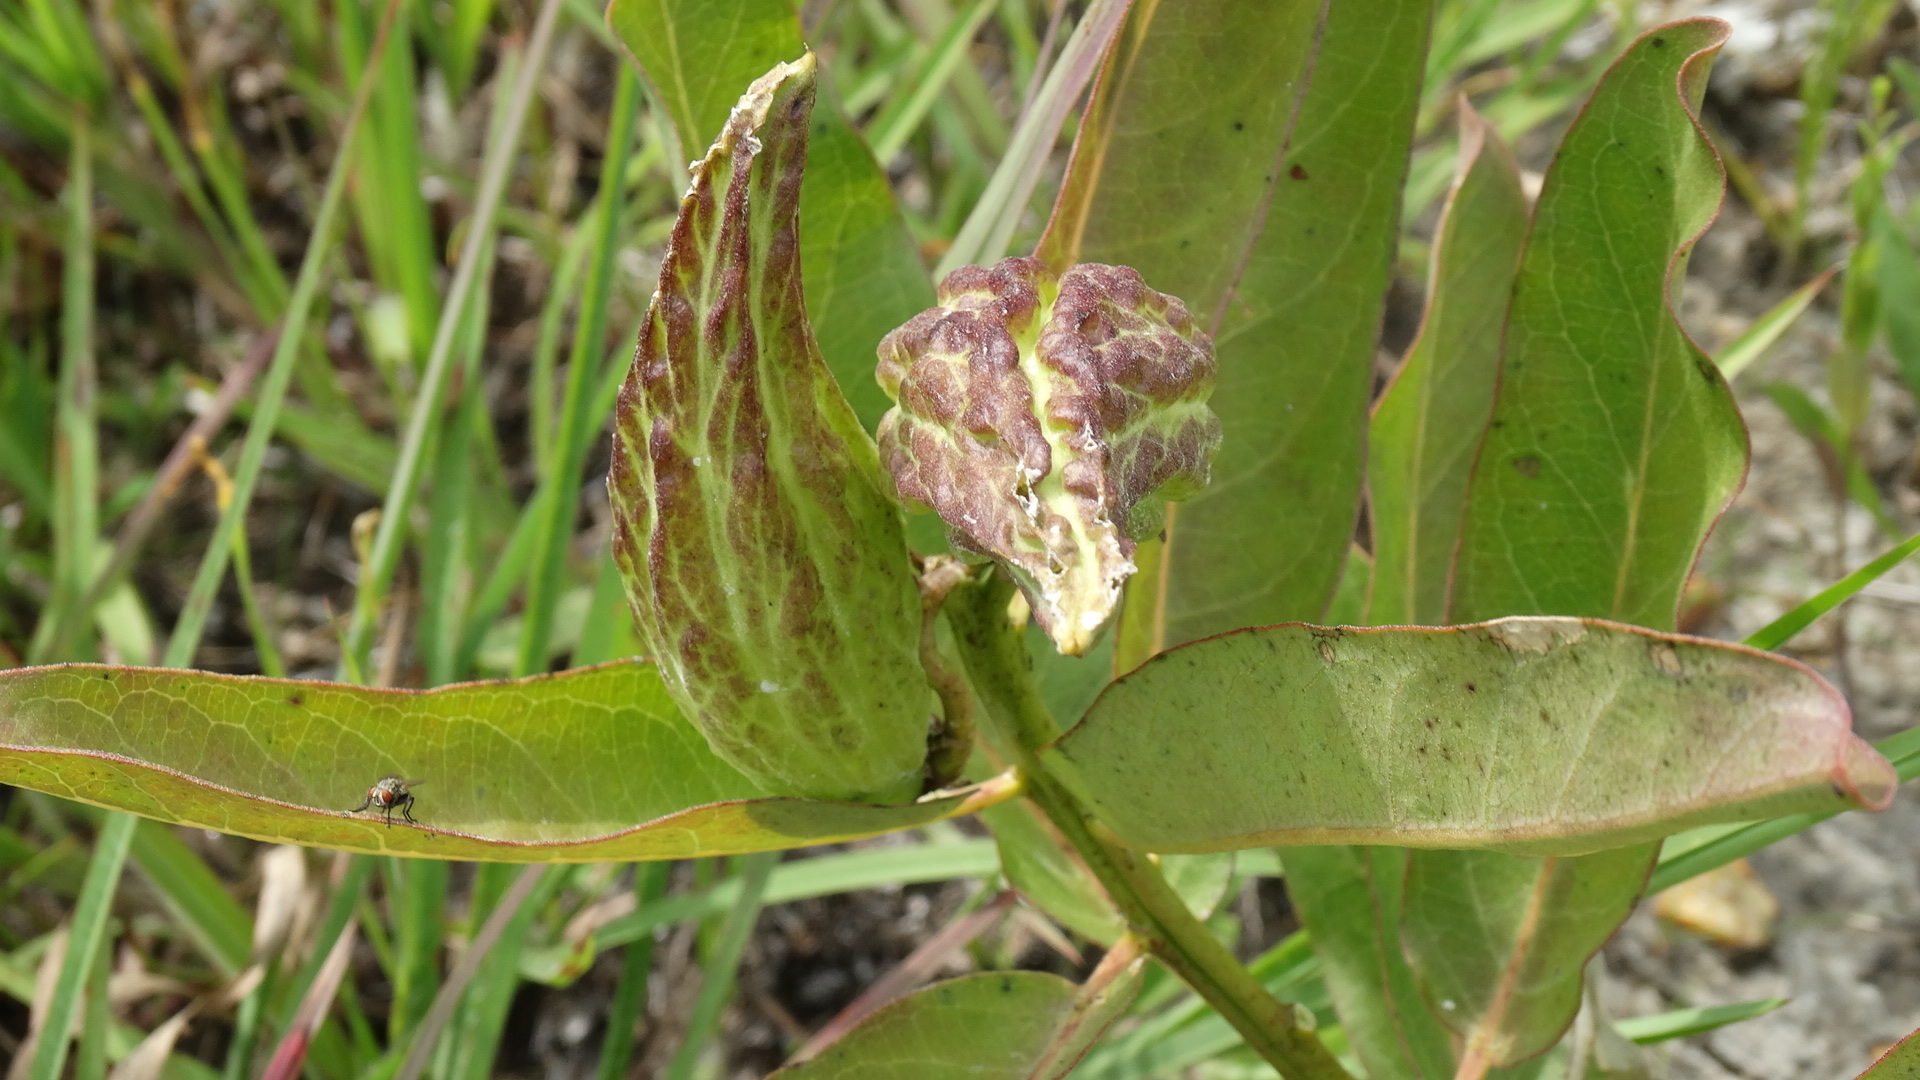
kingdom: Plantae
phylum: Tracheophyta
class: Magnoliopsida
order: Gentianales
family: Apocynaceae
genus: Asclepias
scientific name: Asclepias viridis
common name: Antelope-horns
